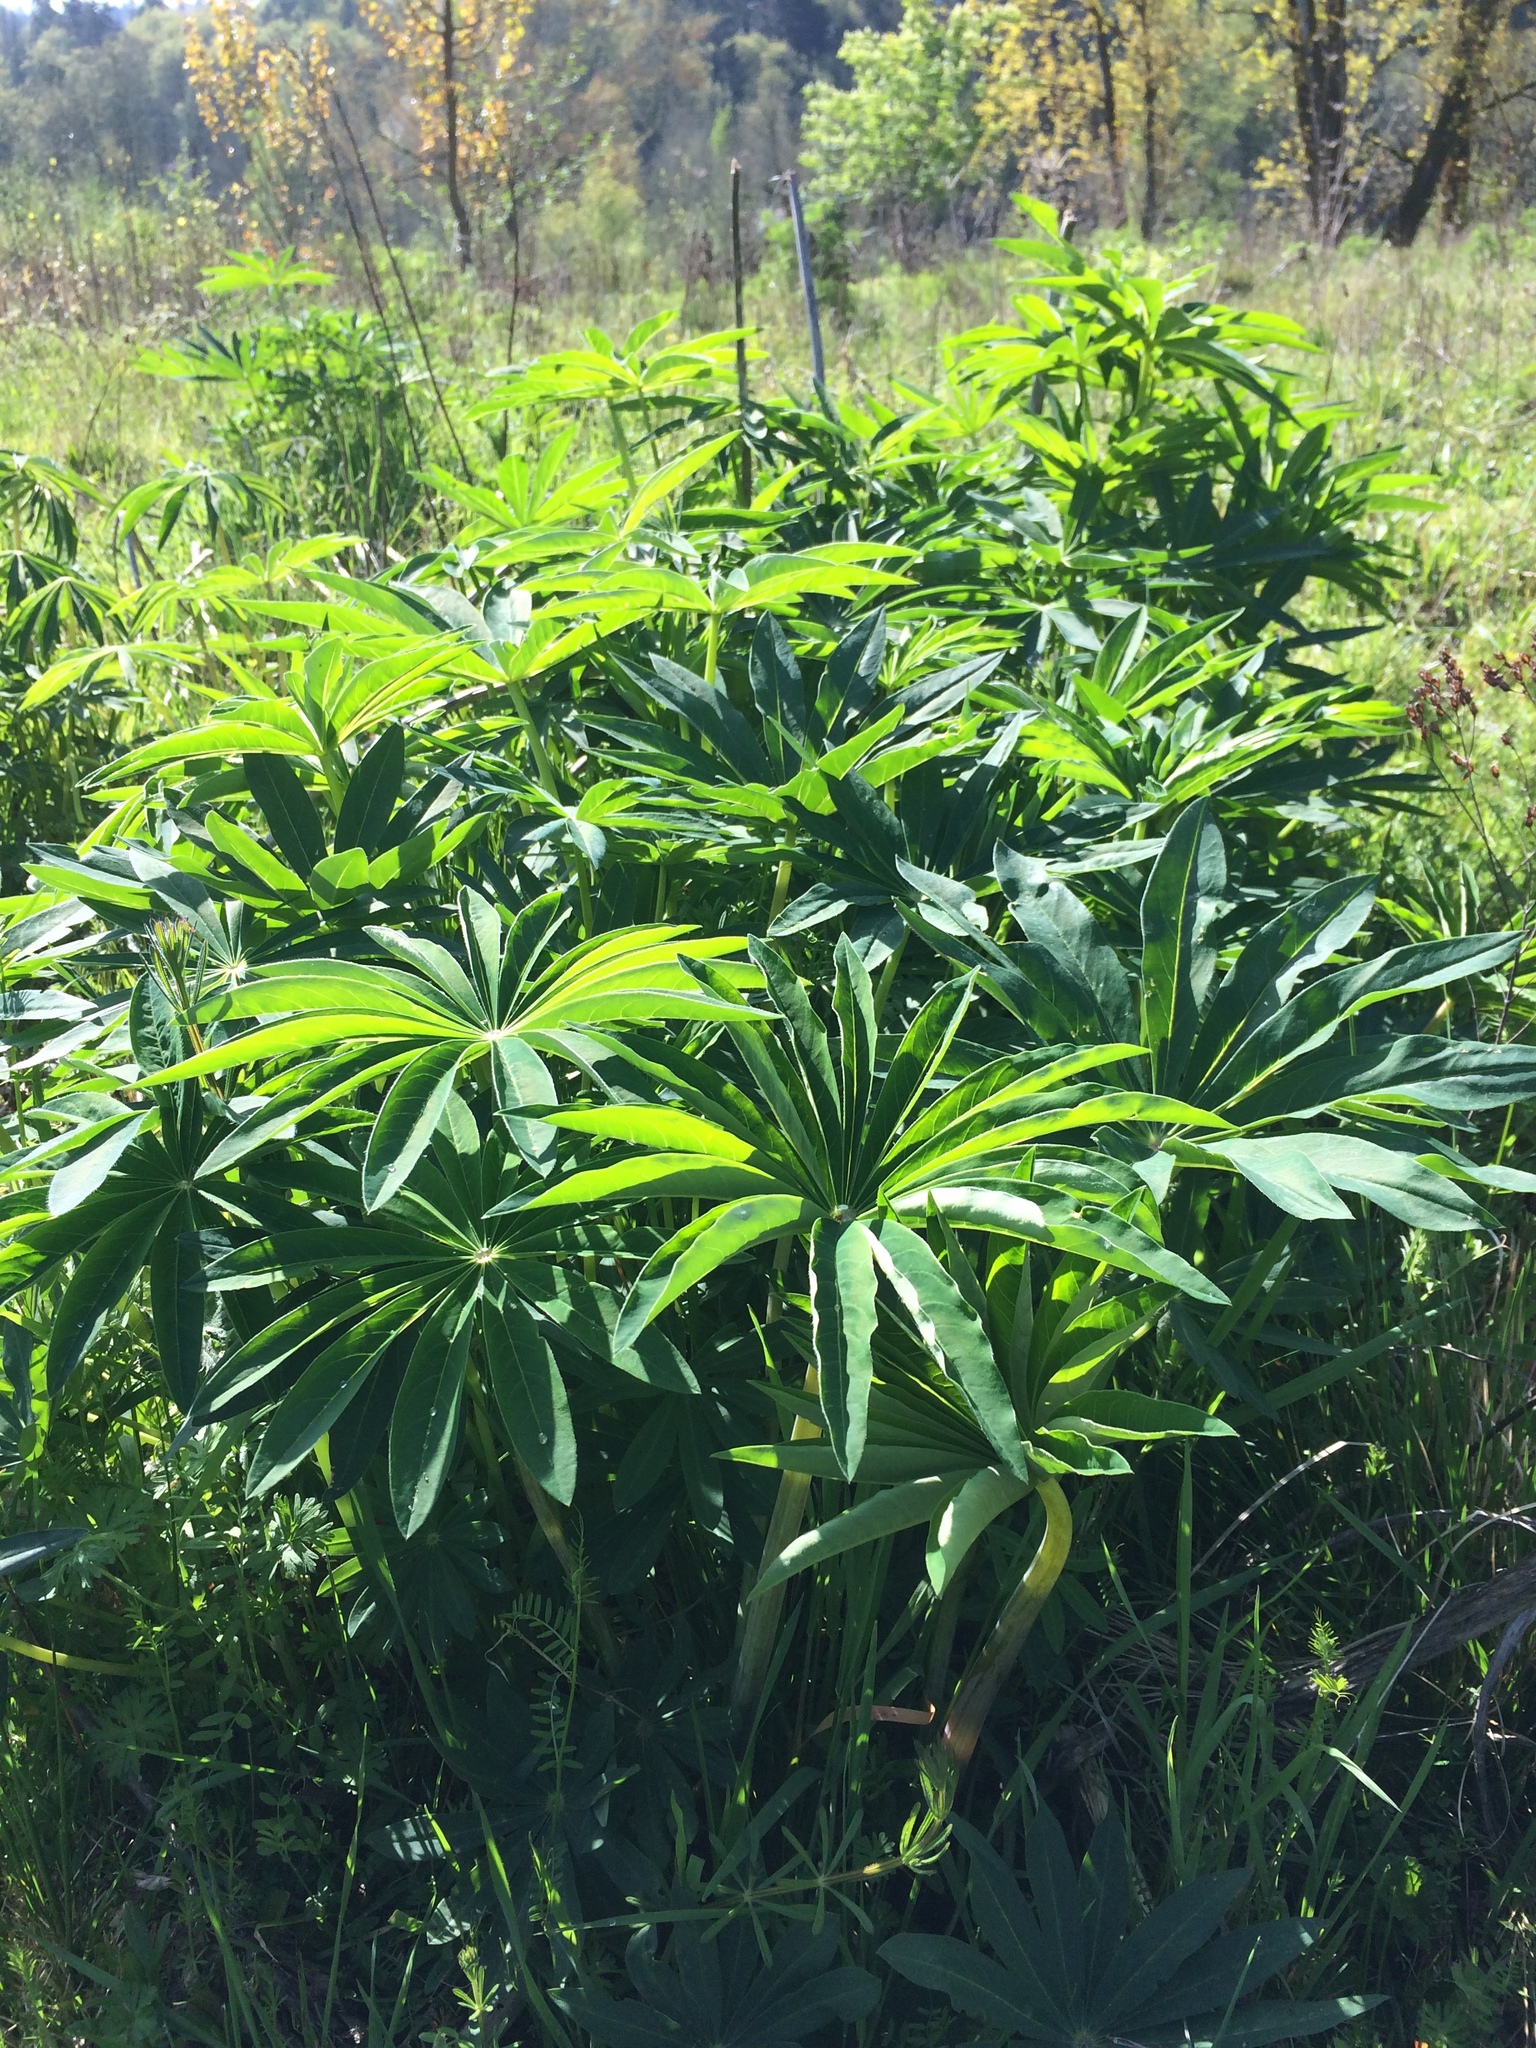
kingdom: Plantae
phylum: Tracheophyta
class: Magnoliopsida
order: Fabales
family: Fabaceae
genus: Lupinus
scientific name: Lupinus polyphyllus
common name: Garden lupin
